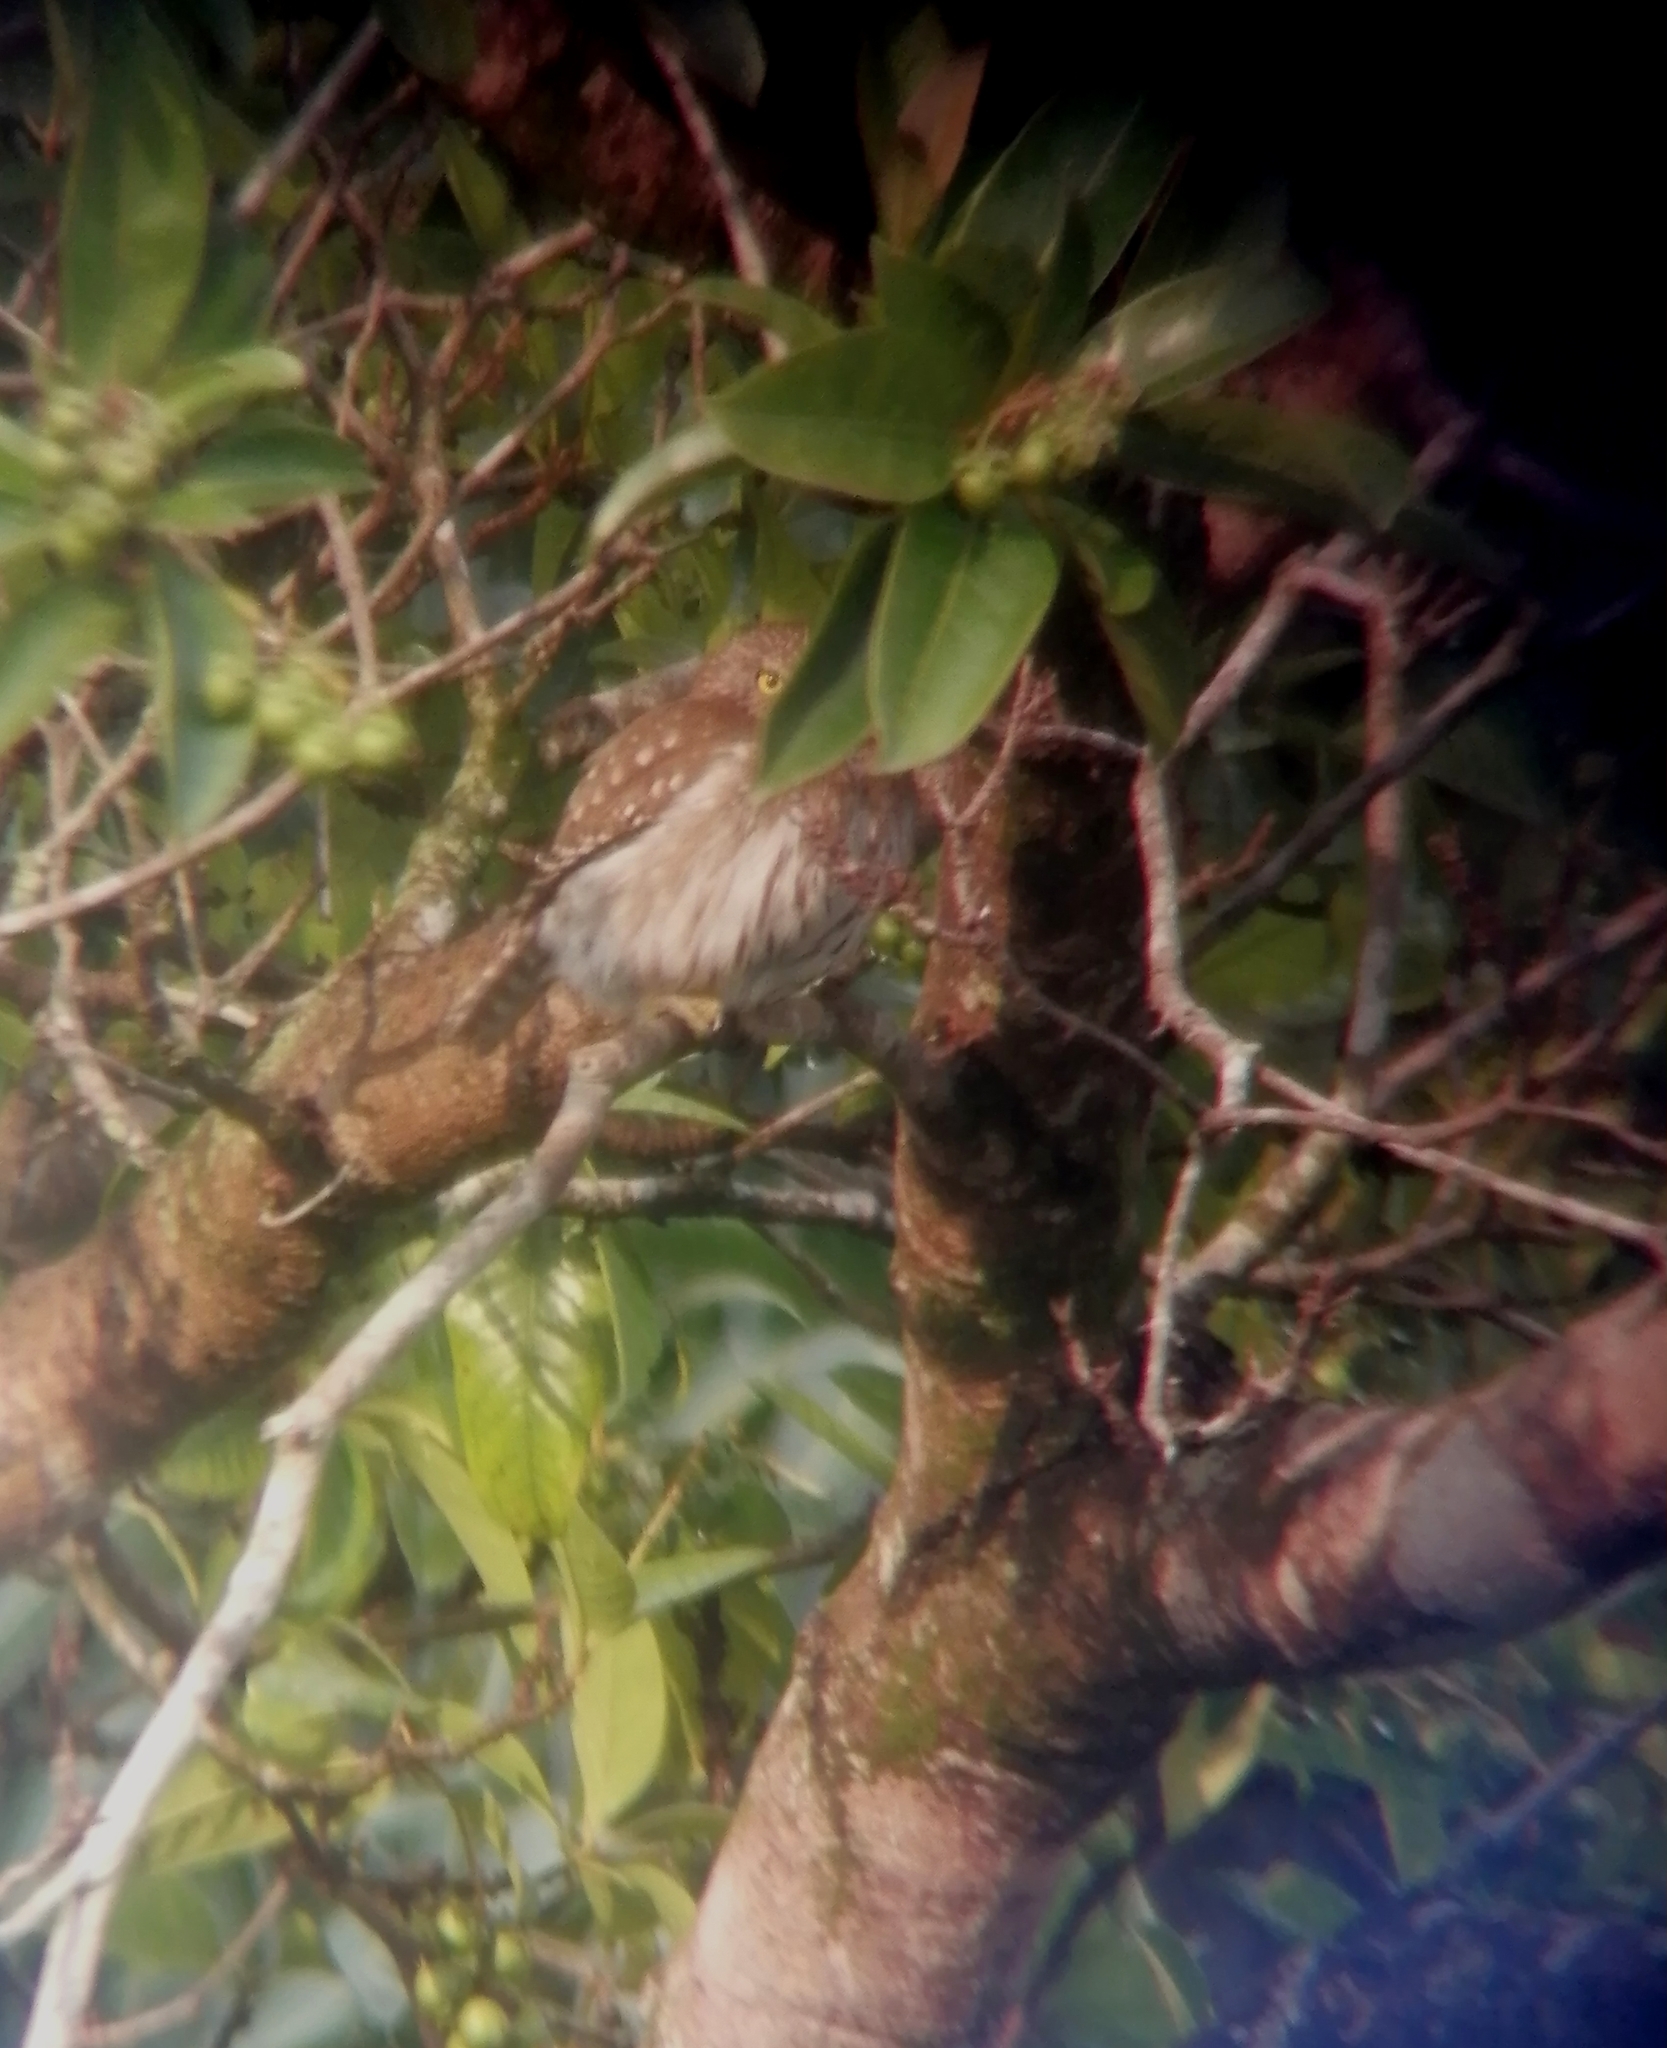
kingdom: Animalia
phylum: Chordata
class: Aves
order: Strigiformes
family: Strigidae
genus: Glaucidium
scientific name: Glaucidium brasilianum
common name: Ferruginous pygmy-owl
